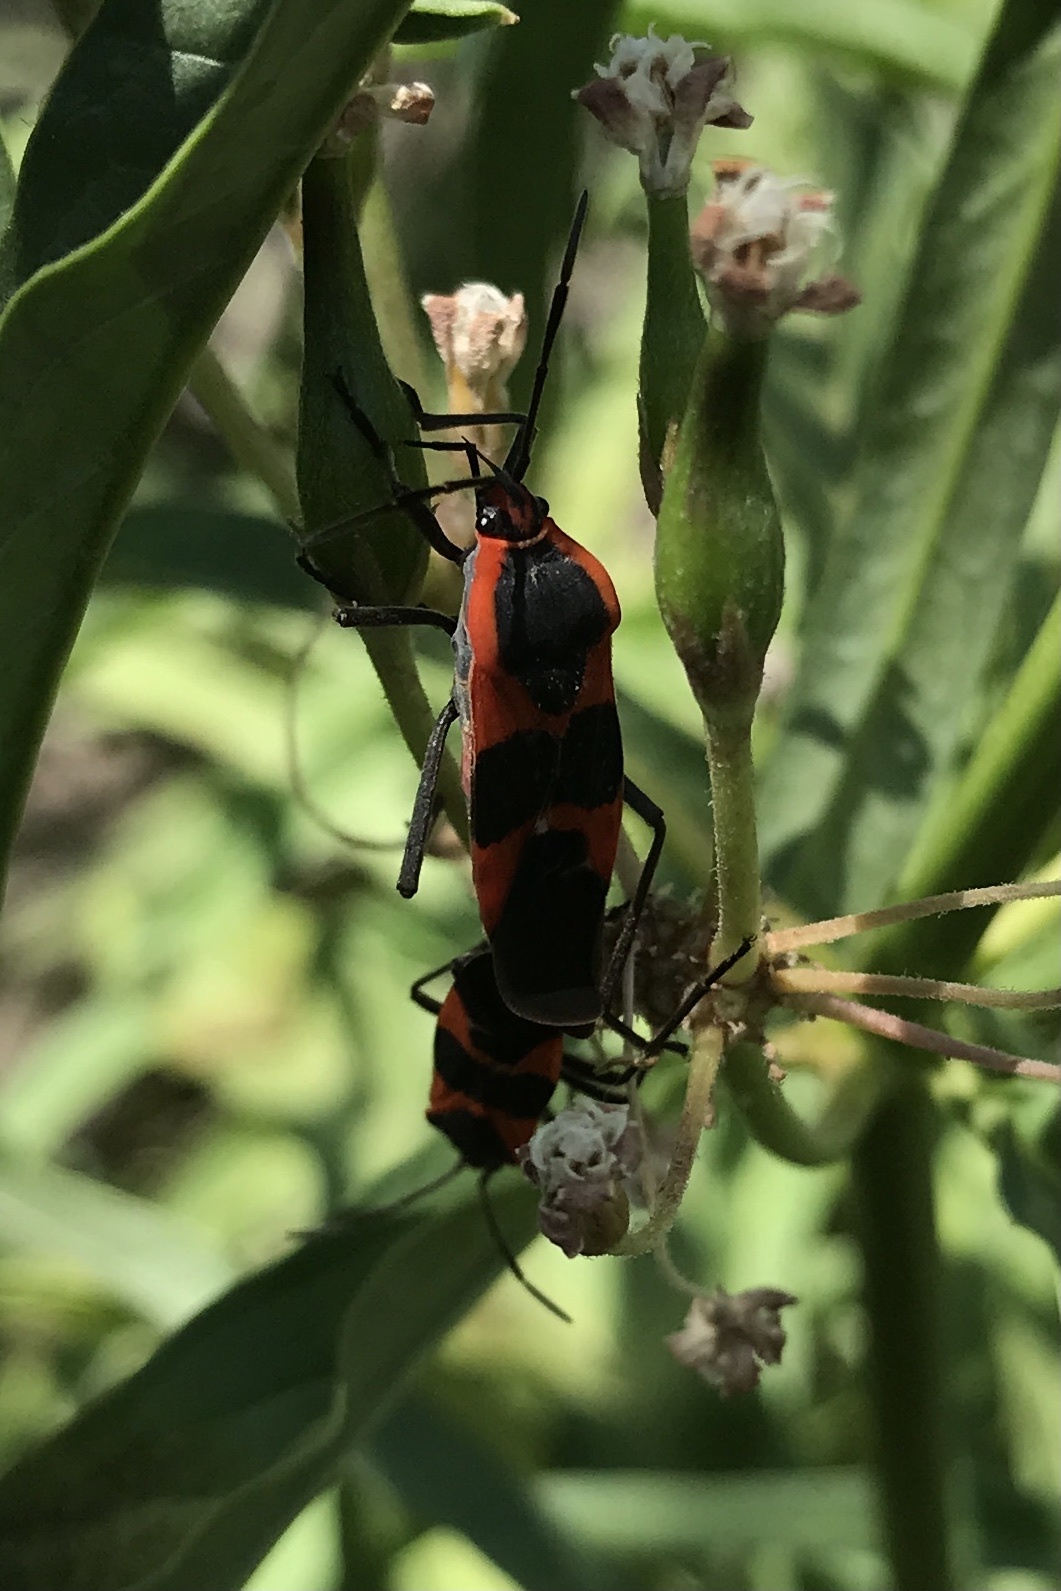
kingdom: Animalia
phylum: Arthropoda
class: Insecta
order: Hemiptera
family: Lygaeidae
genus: Oncopeltus
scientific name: Oncopeltus fasciatus
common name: Large milkweed bug
